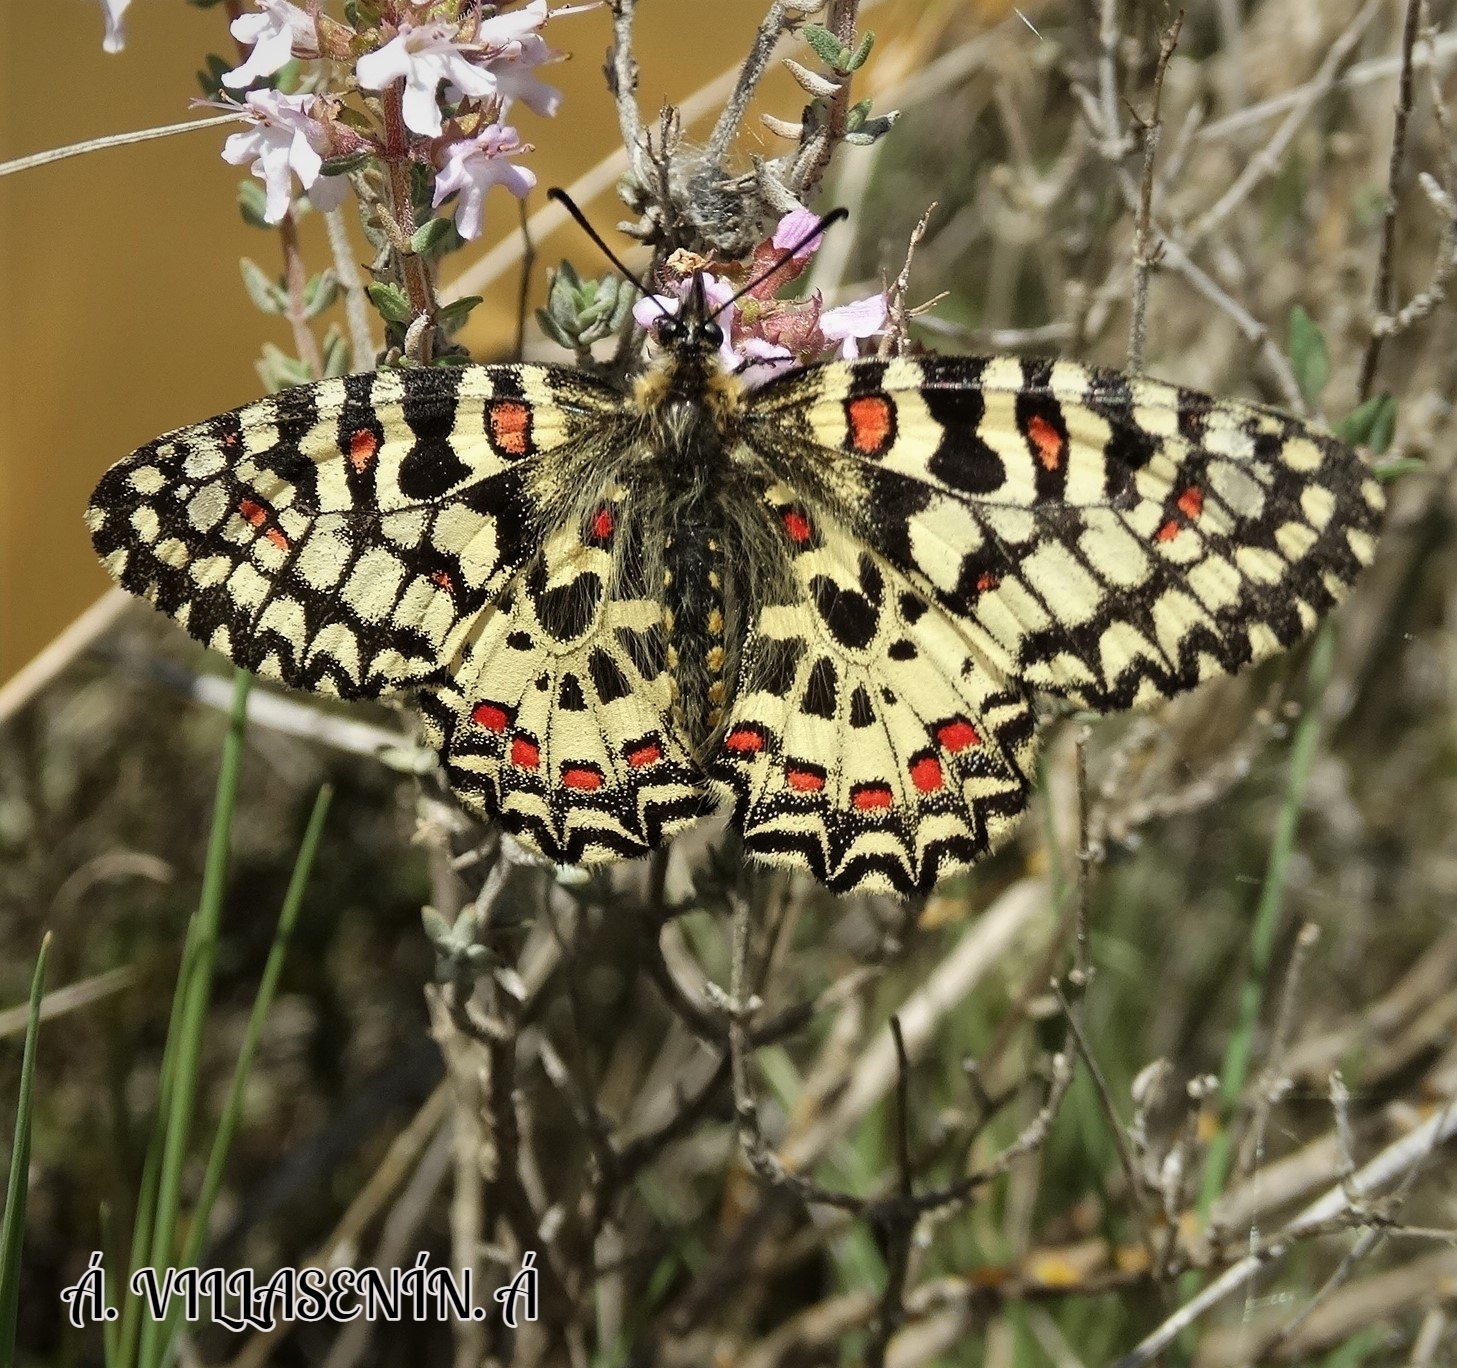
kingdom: Animalia
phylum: Arthropoda
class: Insecta
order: Lepidoptera
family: Papilionidae
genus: Zerynthia
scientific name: Zerynthia rumina
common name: Spanish festoon
